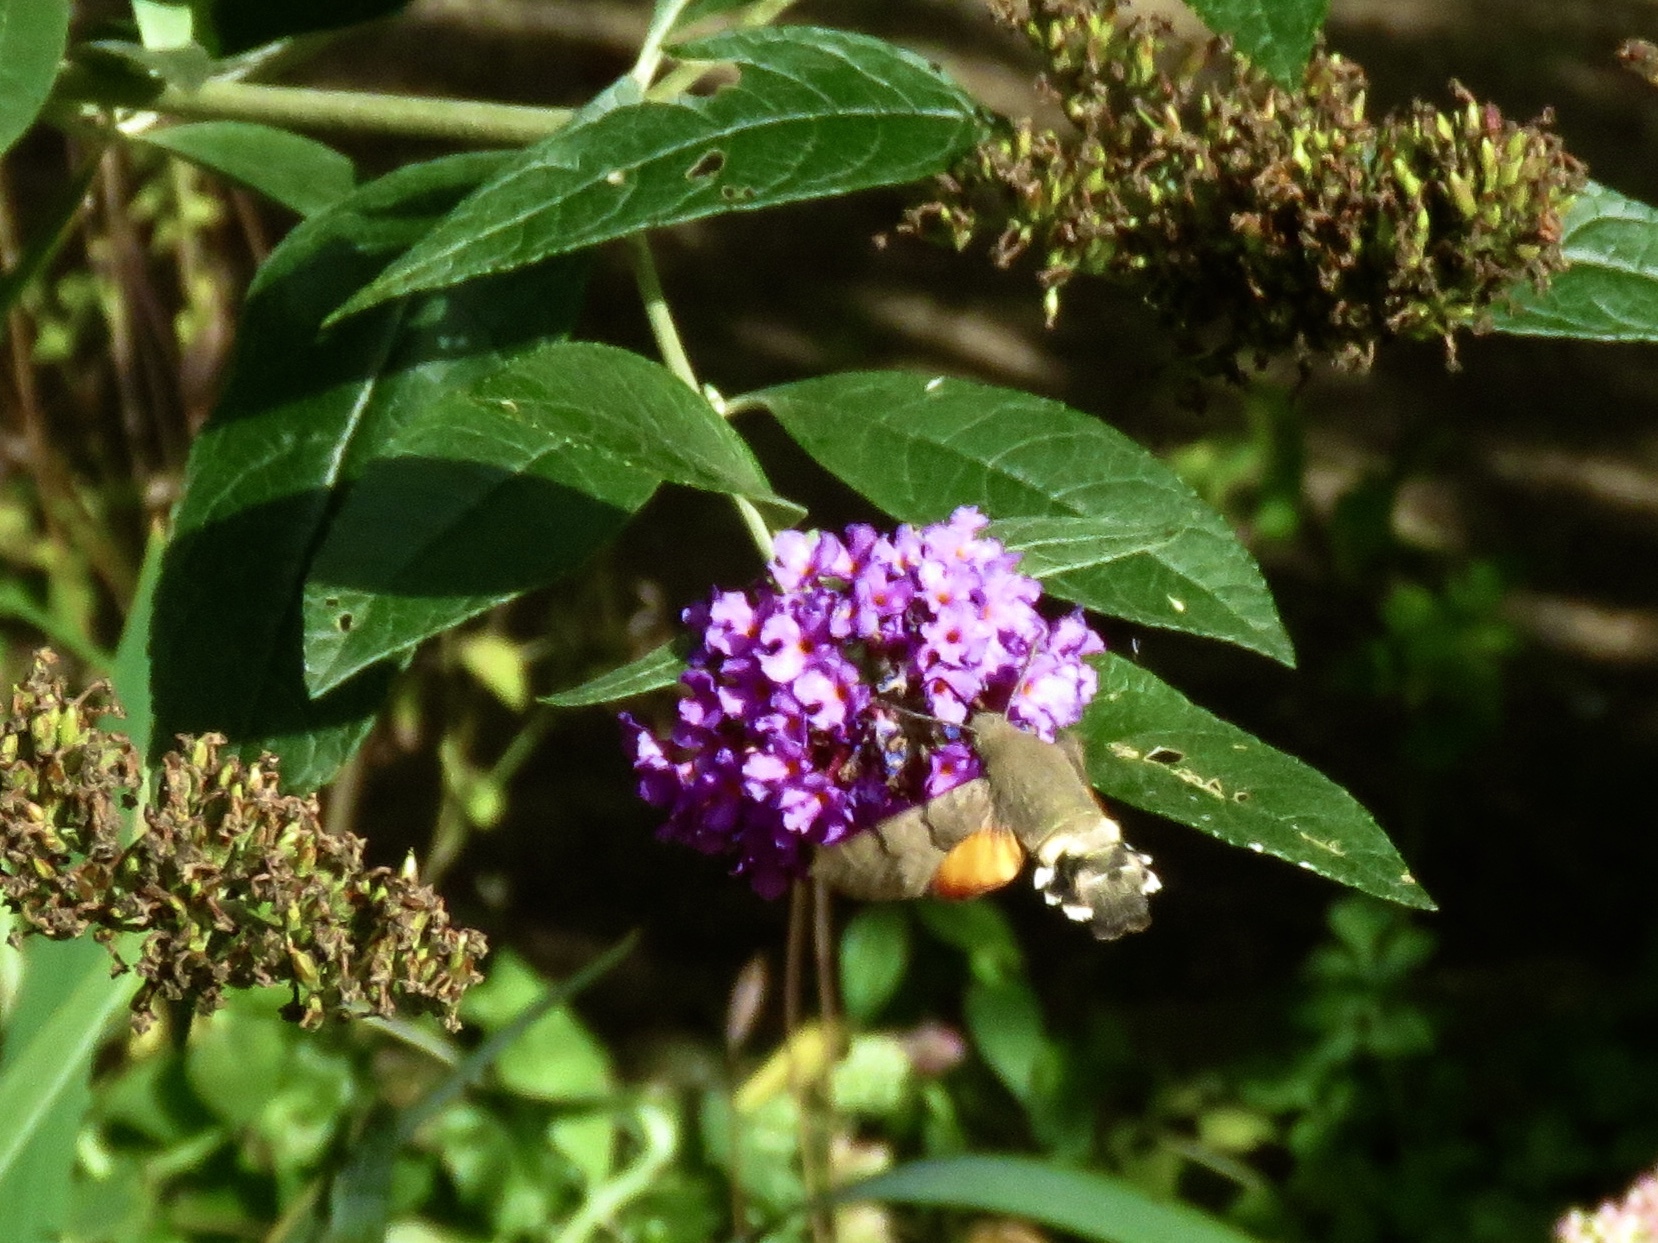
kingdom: Animalia
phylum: Arthropoda
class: Insecta
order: Lepidoptera
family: Sphingidae
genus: Macroglossum
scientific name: Macroglossum stellatarum
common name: Humming-bird hawk-moth
